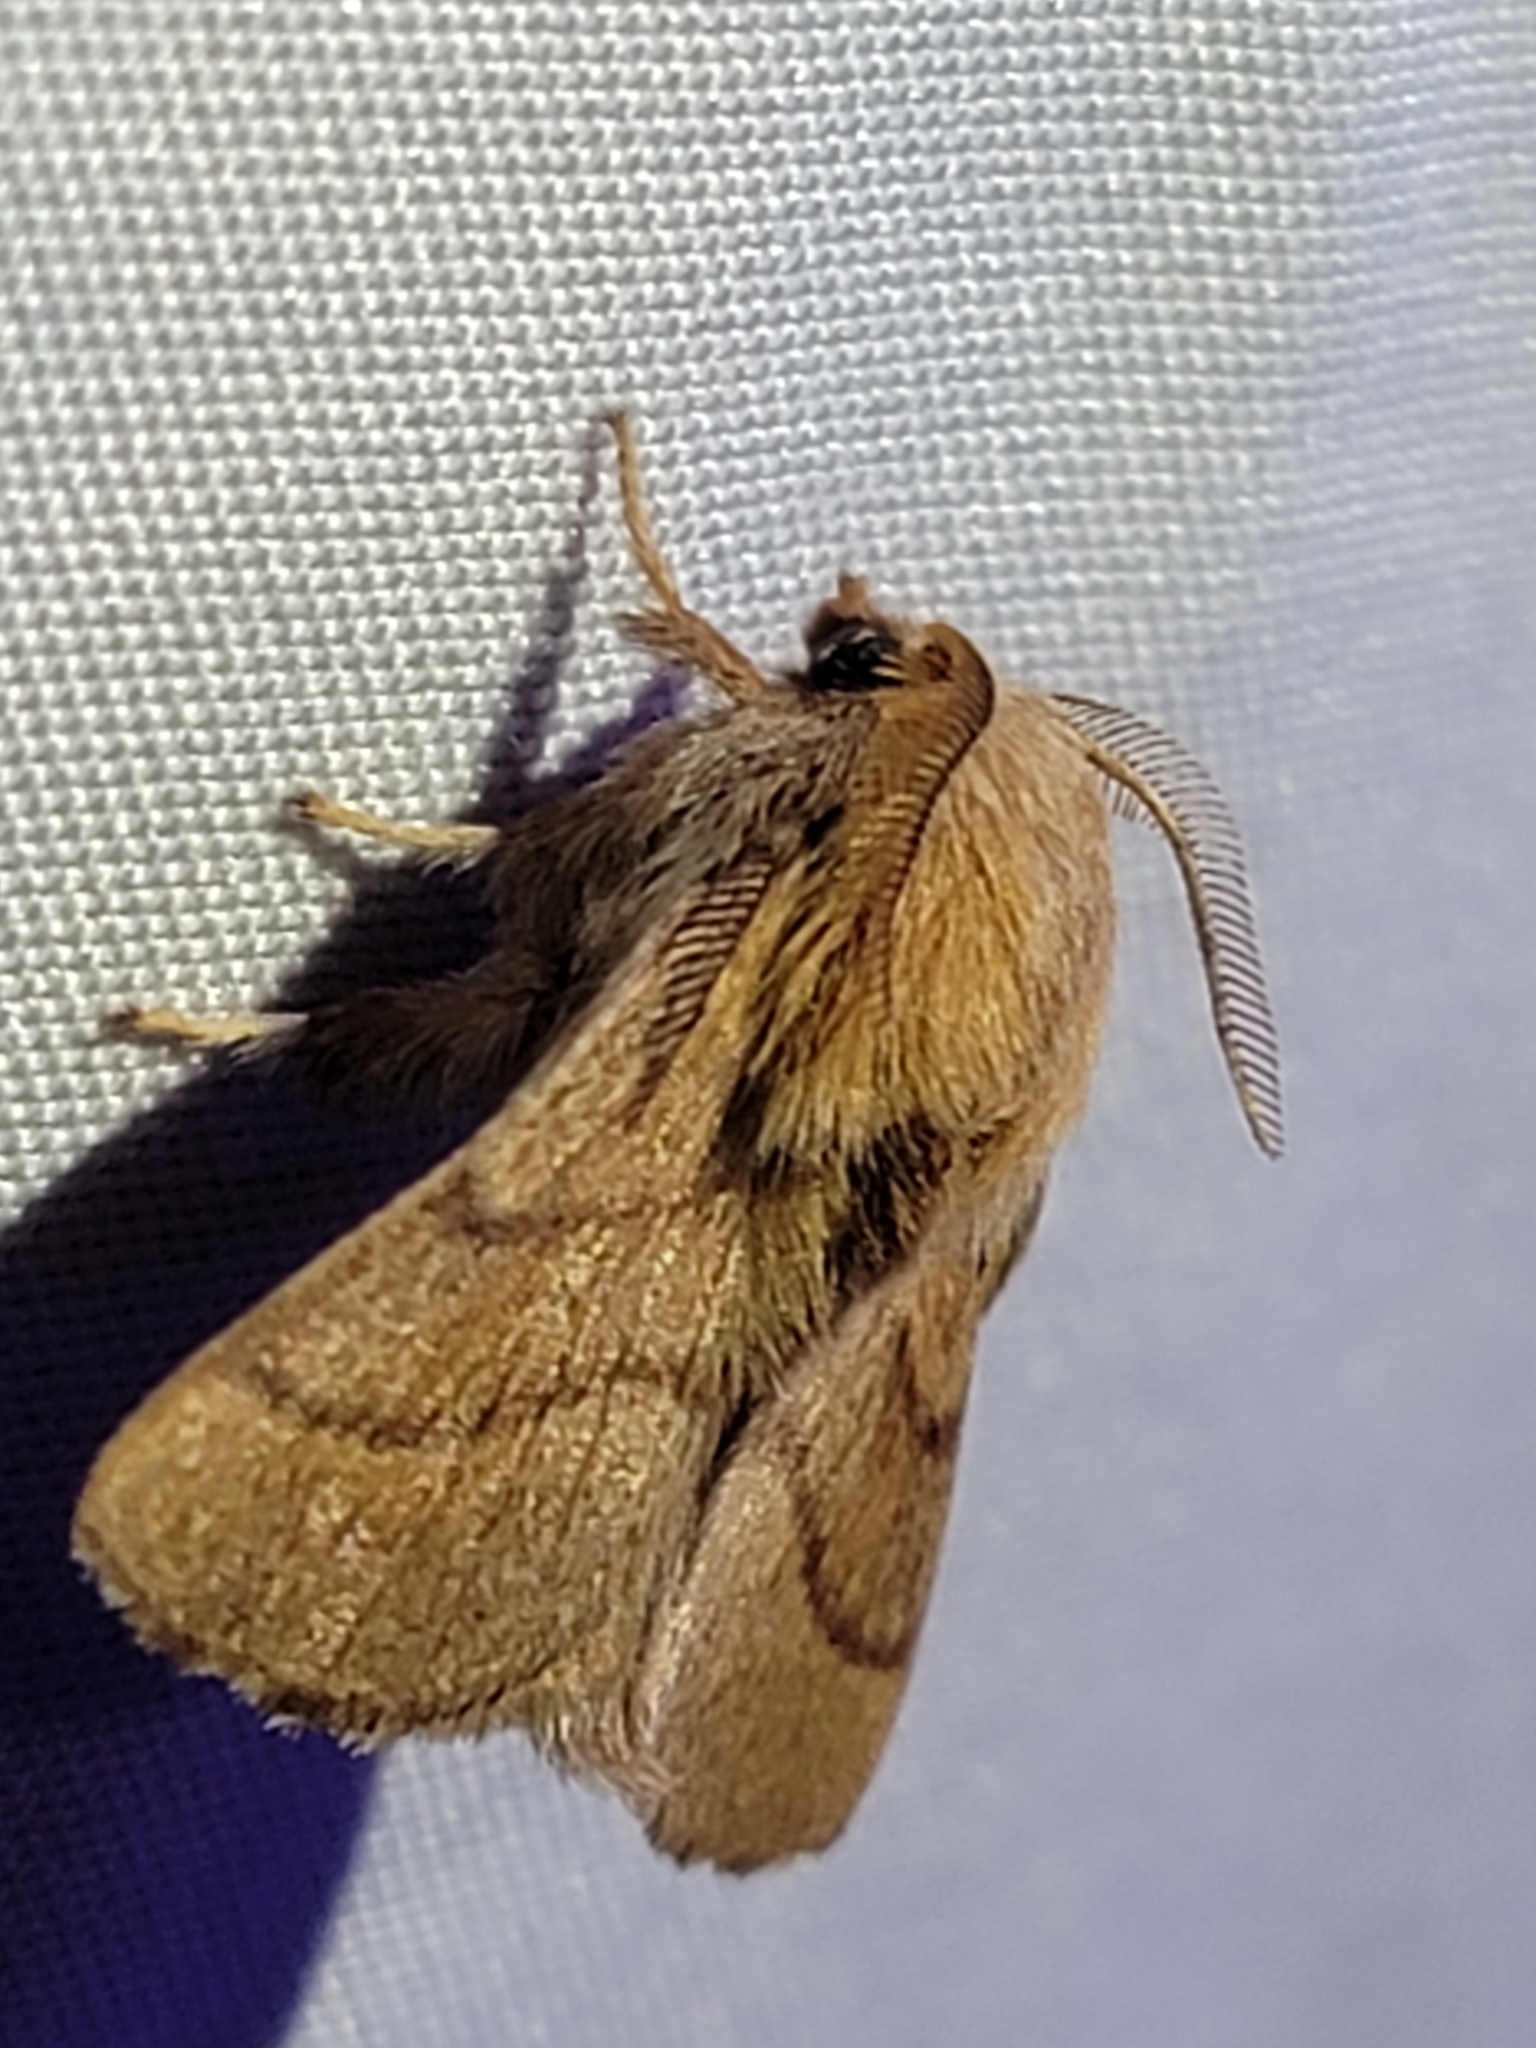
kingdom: Animalia
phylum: Arthropoda
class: Insecta
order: Lepidoptera
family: Lasiocampidae
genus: Malacosoma
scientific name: Malacosoma disstria
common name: Forest tent caterpillar
